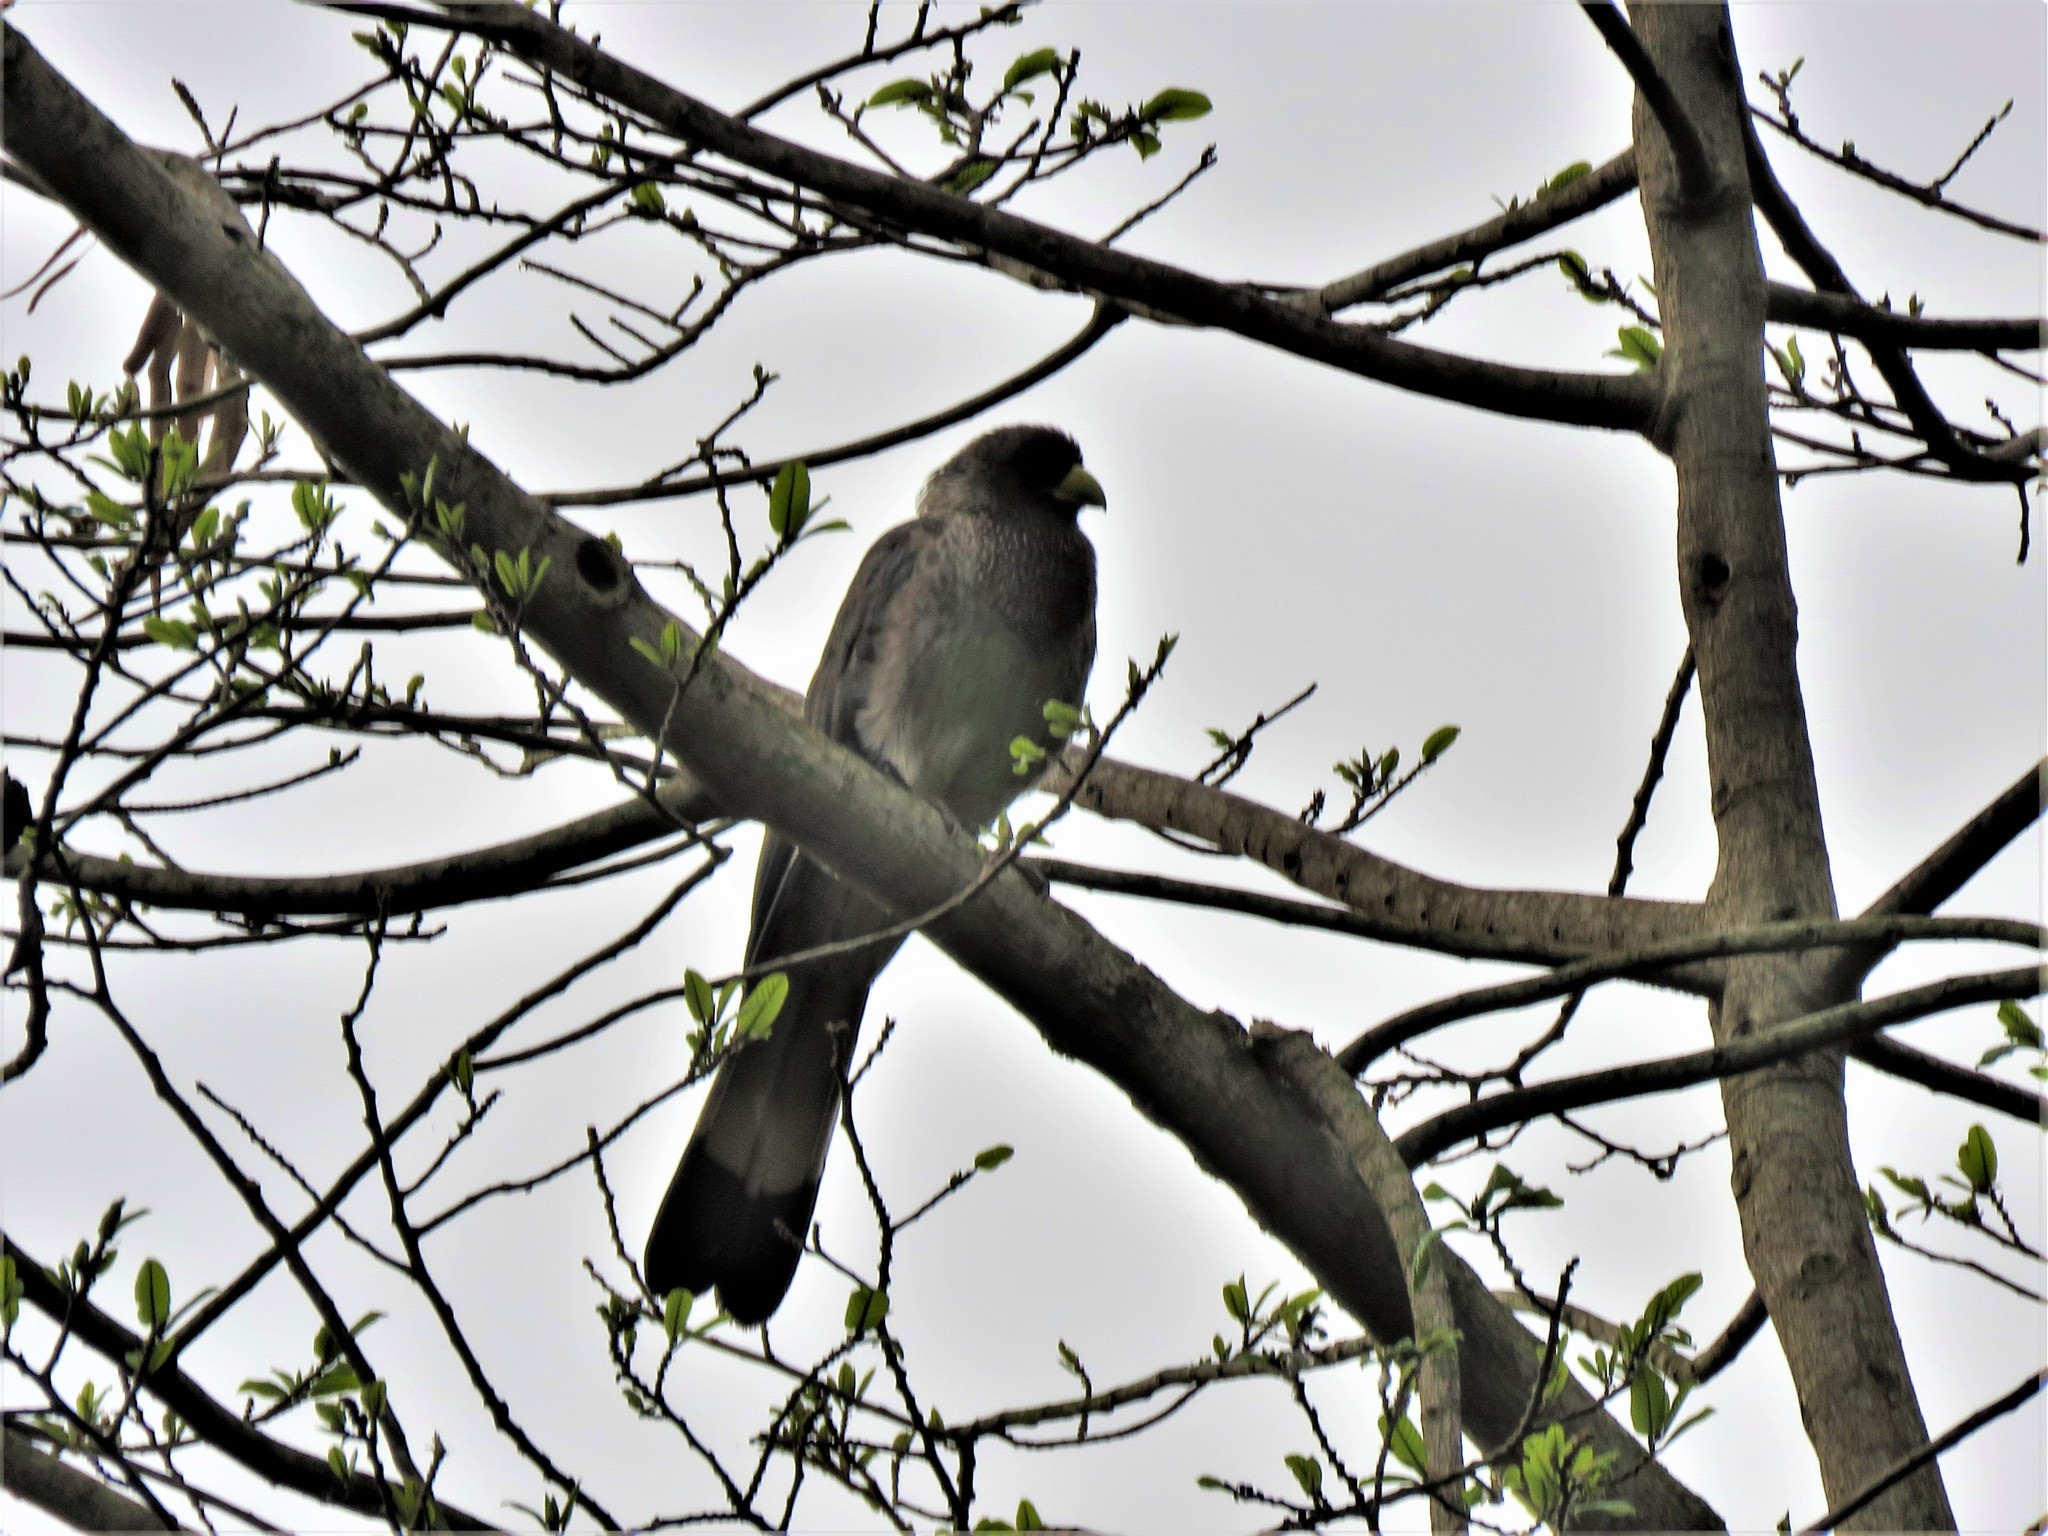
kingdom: Animalia
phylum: Chordata
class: Aves
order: Musophagiformes
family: Musophagidae
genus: Crinifer
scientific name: Crinifer zonurus
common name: Eastern plantain-eater
